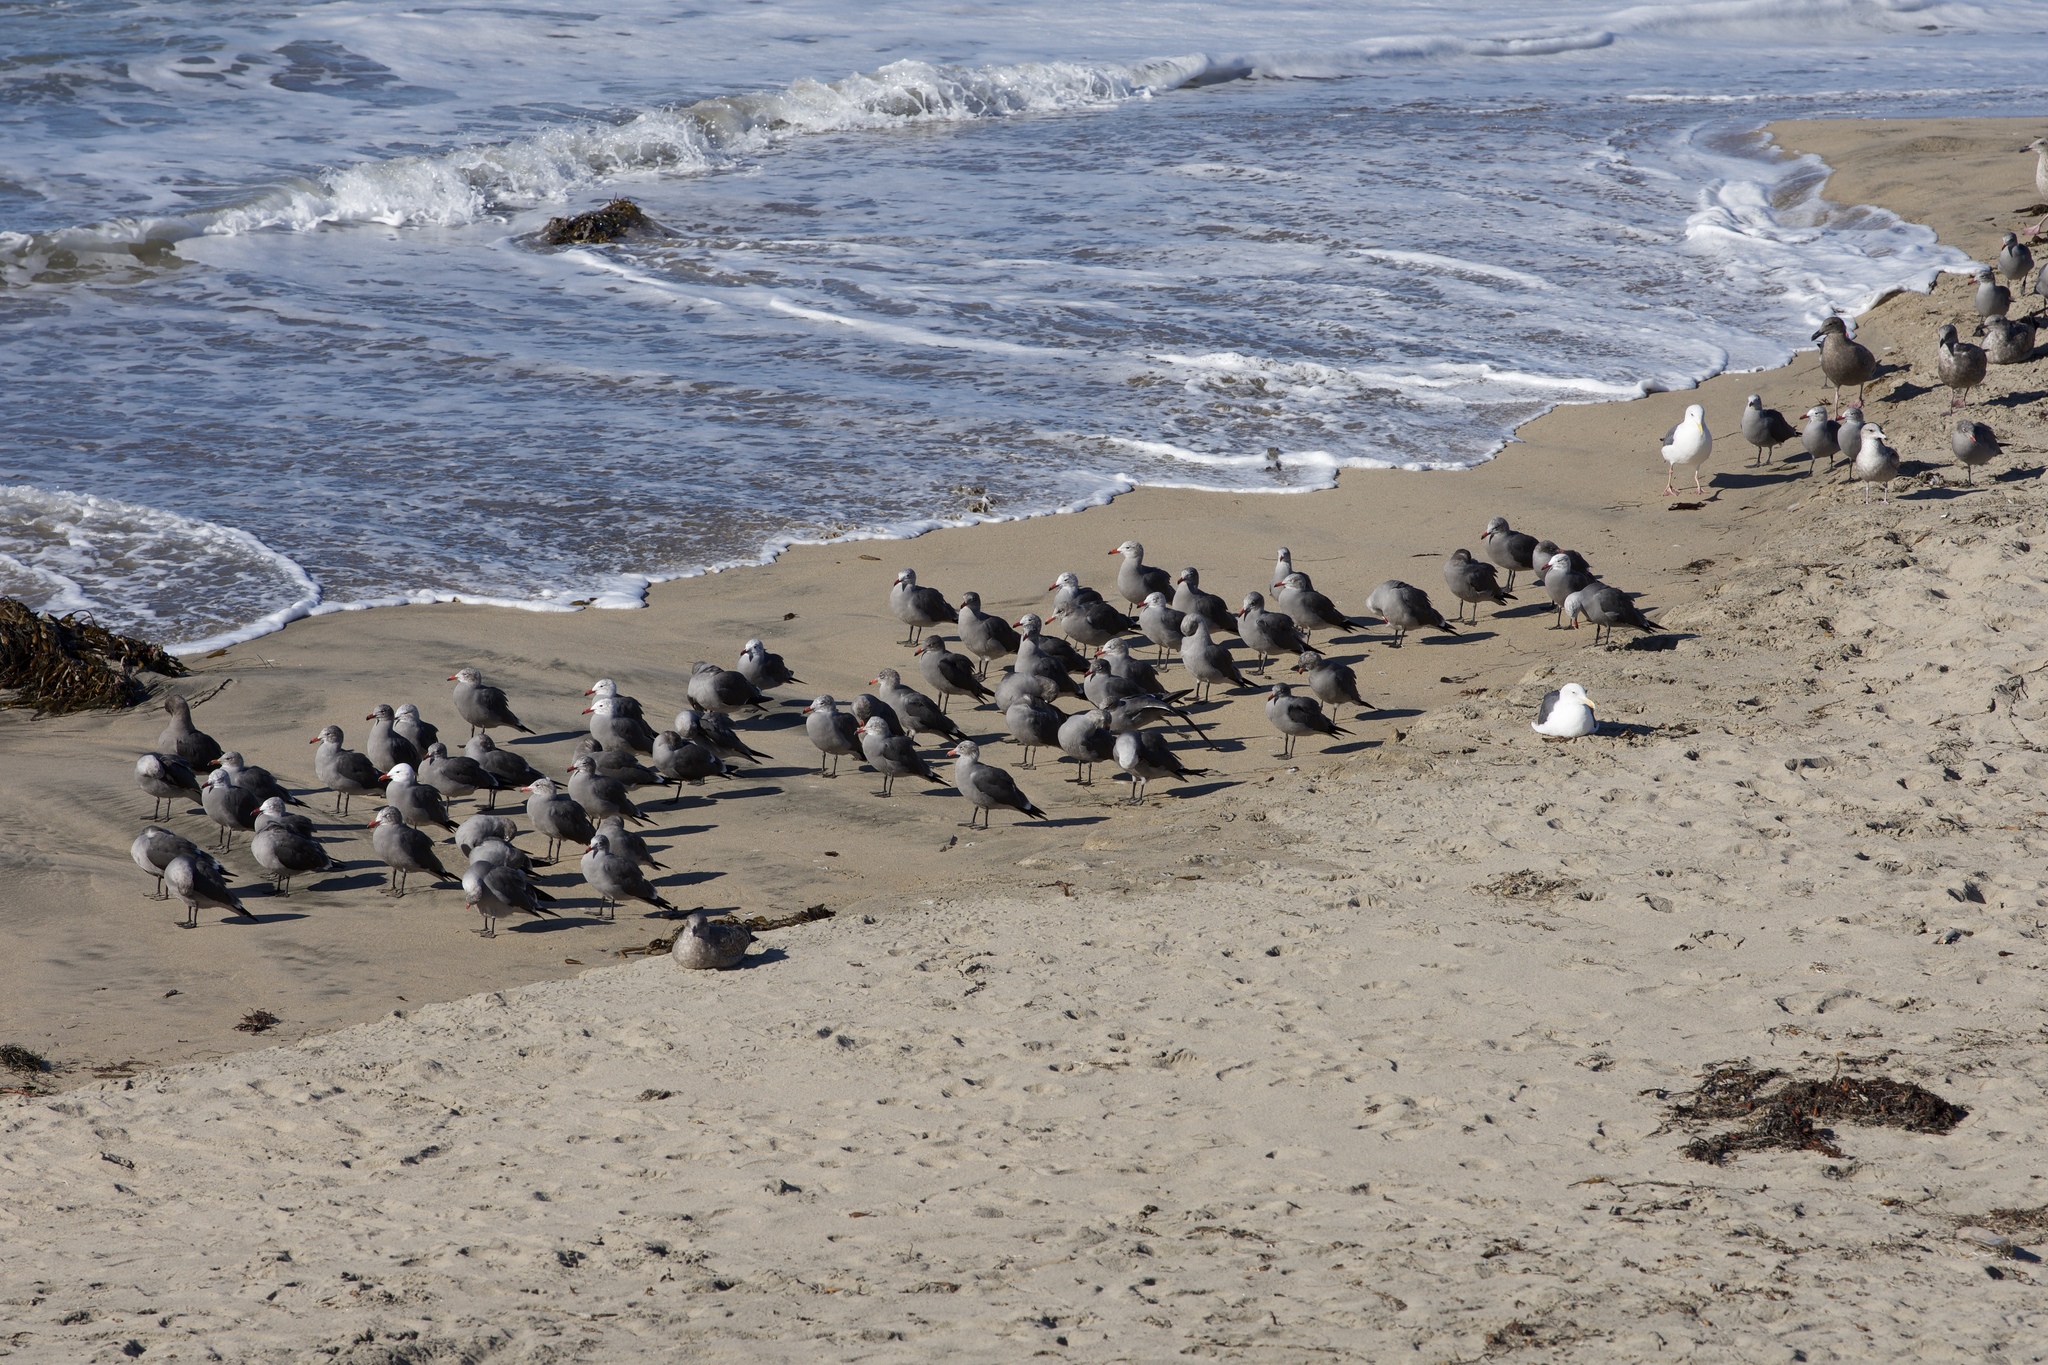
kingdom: Animalia
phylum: Chordata
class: Aves
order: Charadriiformes
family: Laridae
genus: Larus
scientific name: Larus heermanni
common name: Heermann's gull
